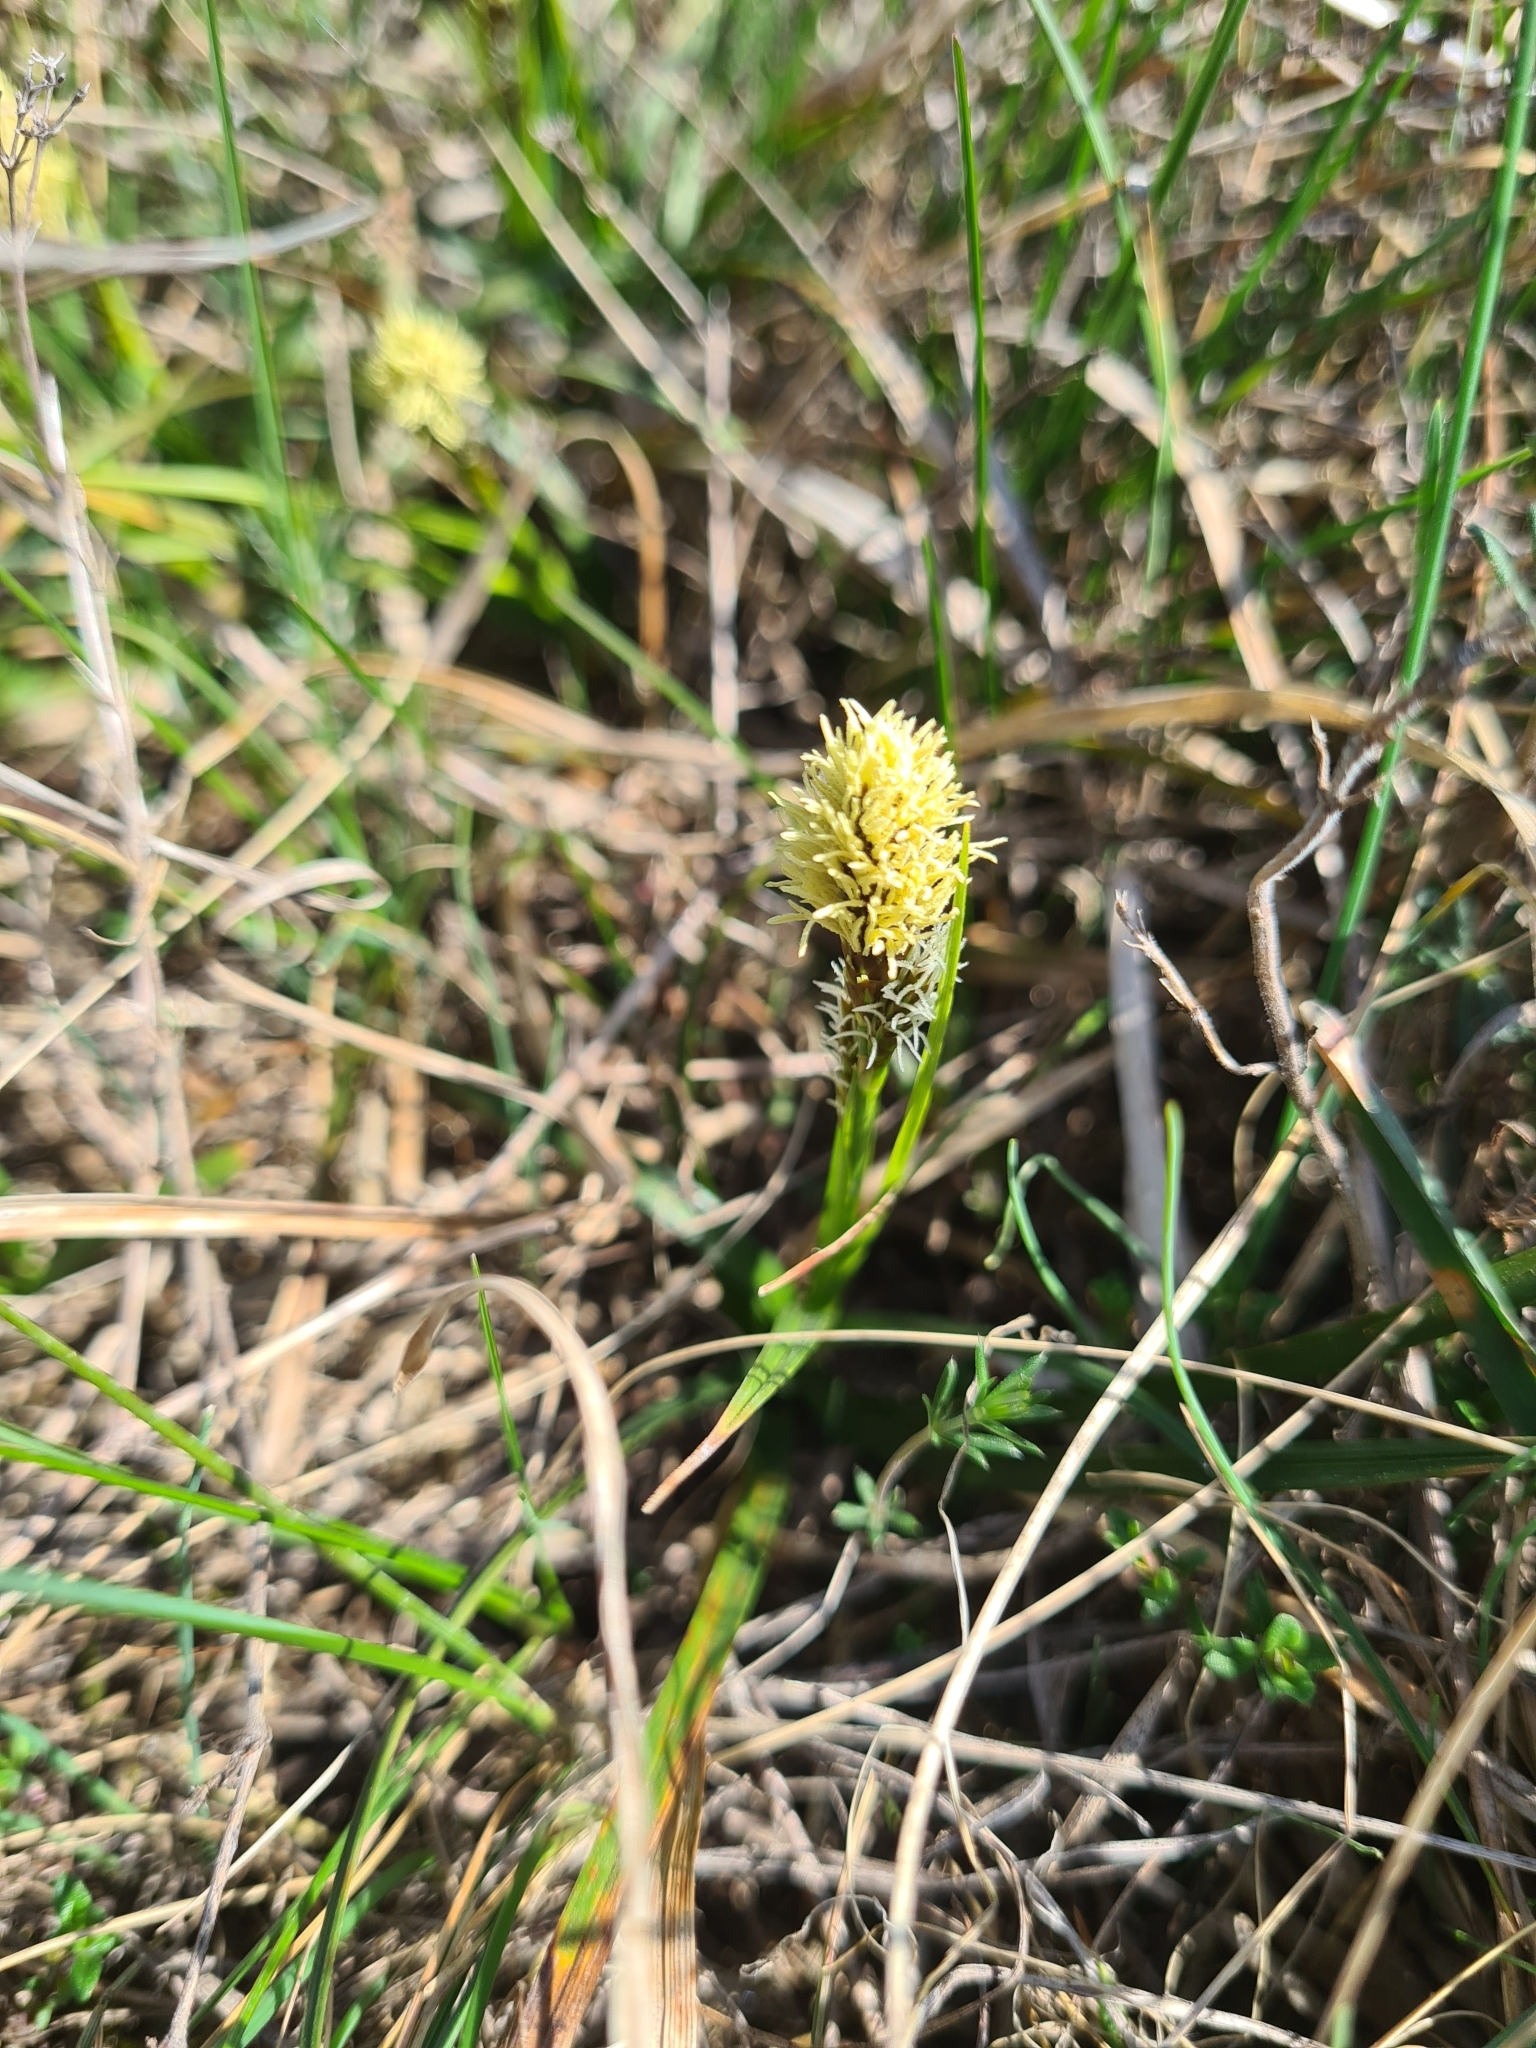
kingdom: Plantae
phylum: Tracheophyta
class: Liliopsida
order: Poales
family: Cyperaceae
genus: Carex
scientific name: Carex caryophyllea
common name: Spring sedge
